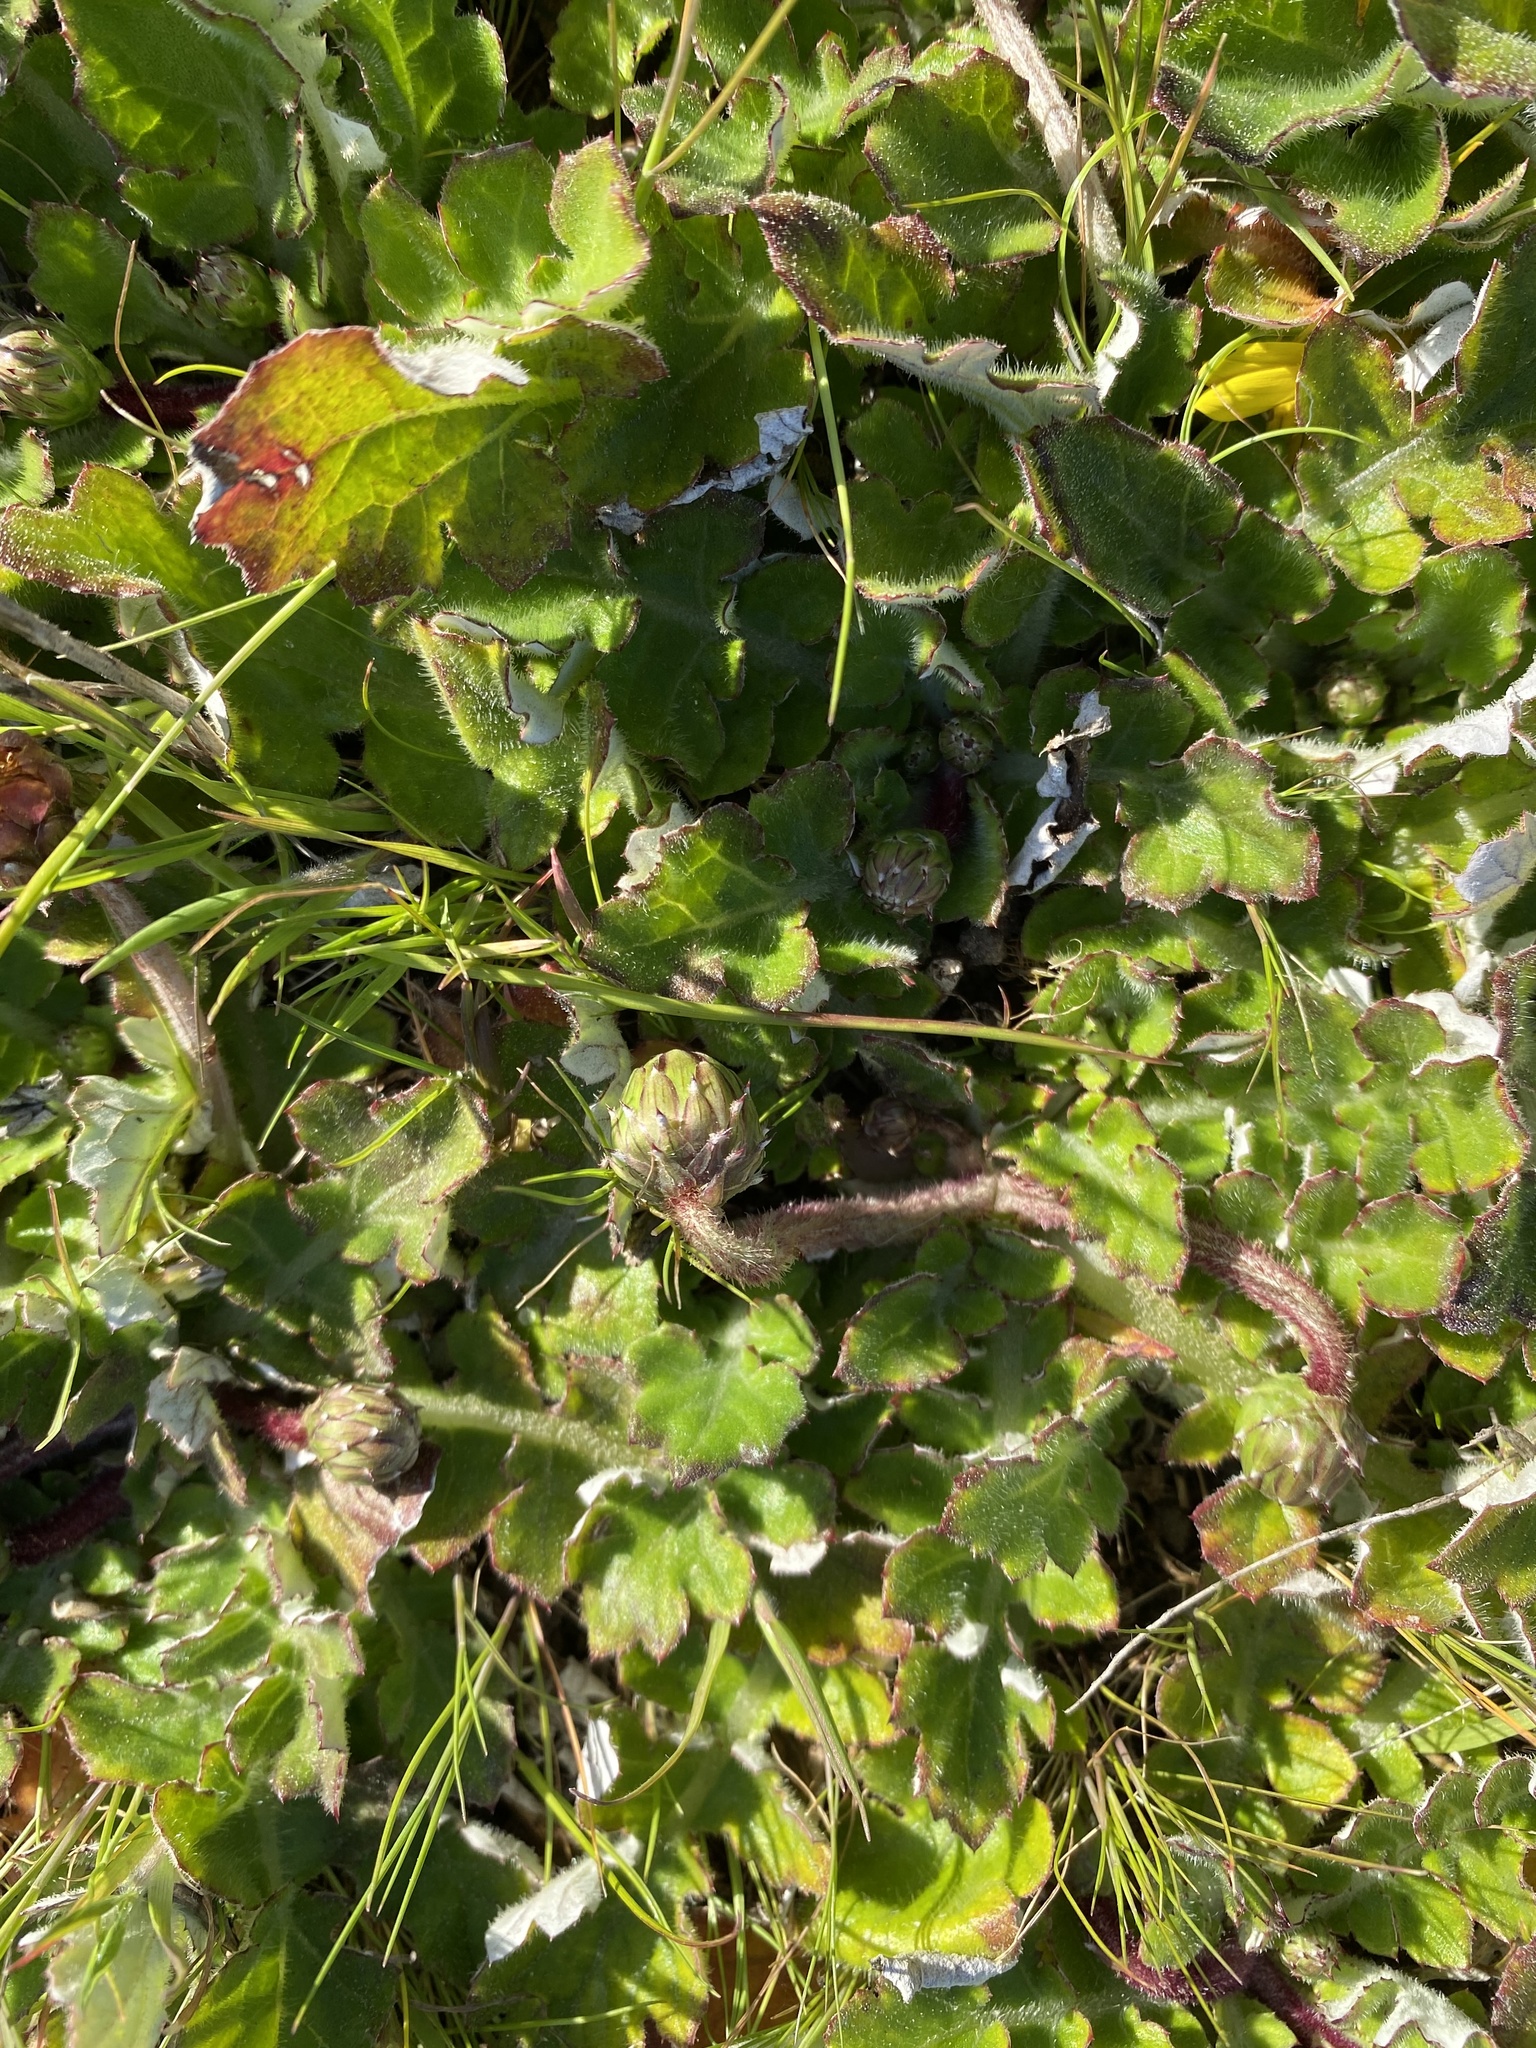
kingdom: Plantae
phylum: Tracheophyta
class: Magnoliopsida
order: Asterales
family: Asteraceae
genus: Arctotheca
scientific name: Arctotheca prostrata
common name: Capeweed
